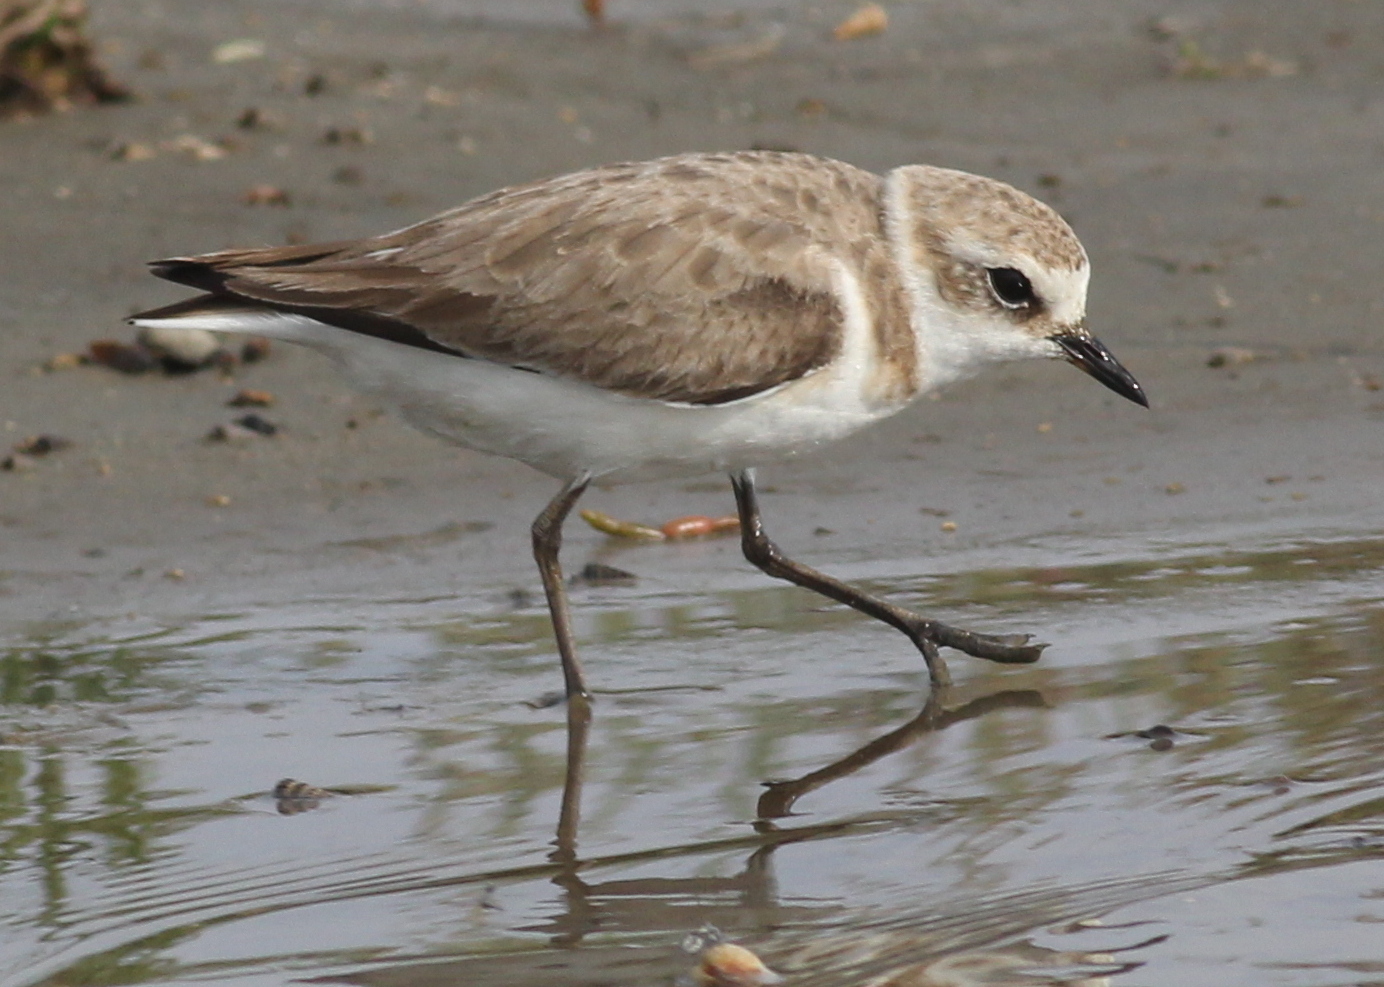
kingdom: Animalia
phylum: Chordata
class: Aves
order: Charadriiformes
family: Charadriidae
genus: Charadrius
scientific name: Charadrius alexandrinus
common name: Kentish plover
